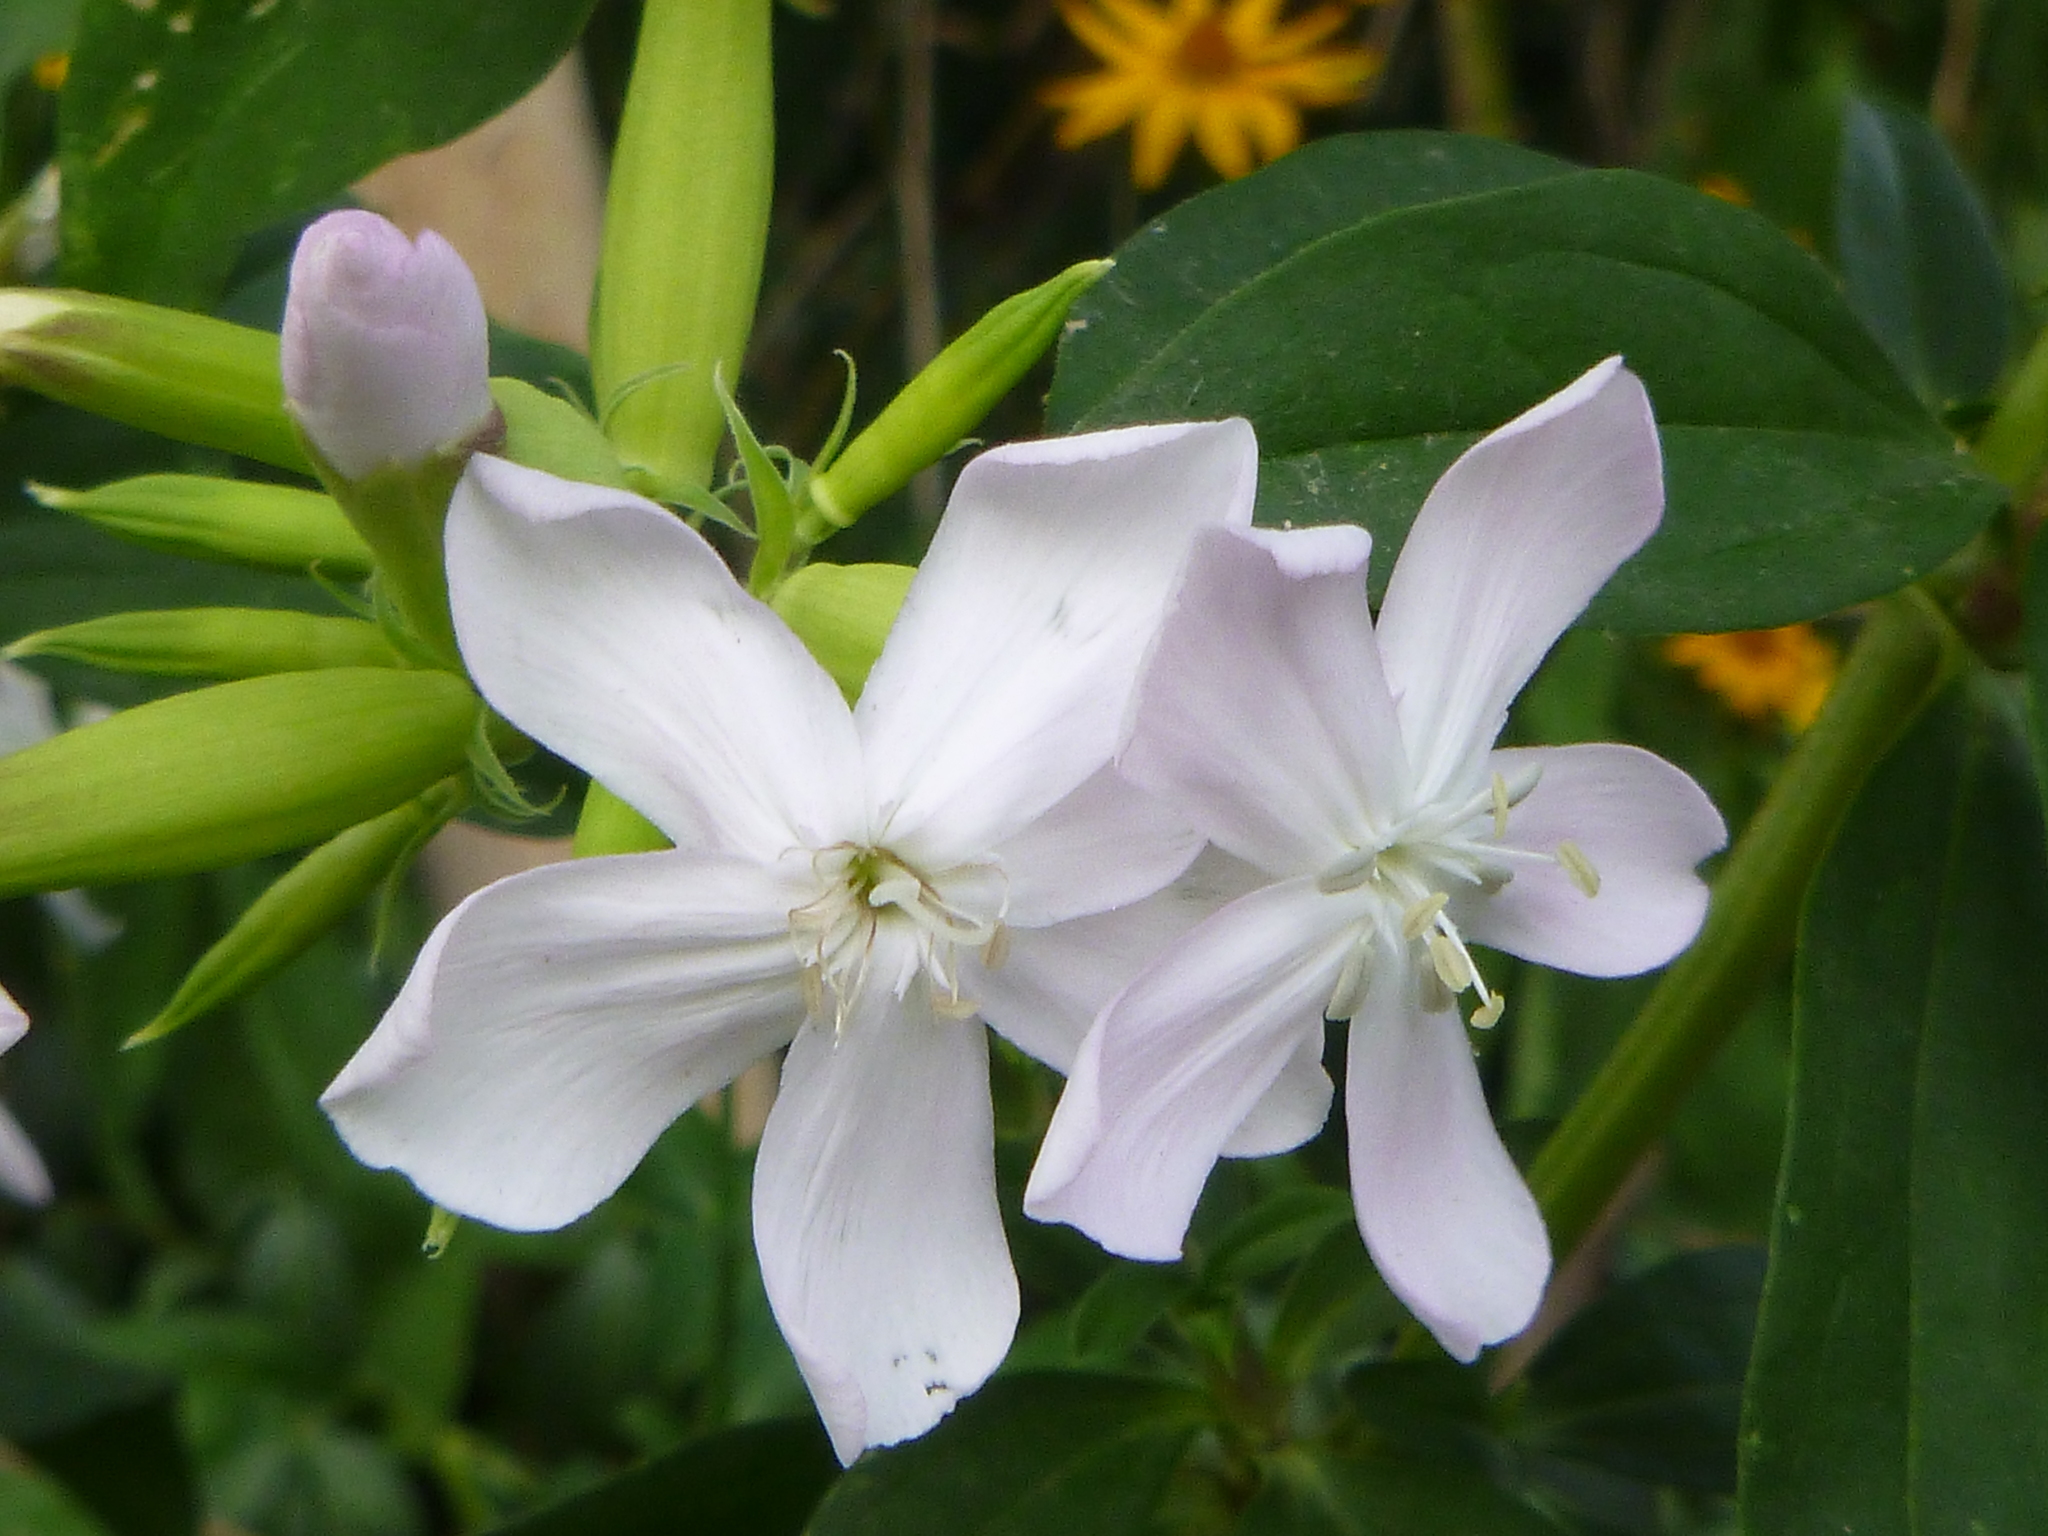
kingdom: Plantae
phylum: Tracheophyta
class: Magnoliopsida
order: Caryophyllales
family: Caryophyllaceae
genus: Saponaria
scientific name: Saponaria officinalis
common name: Soapwort
